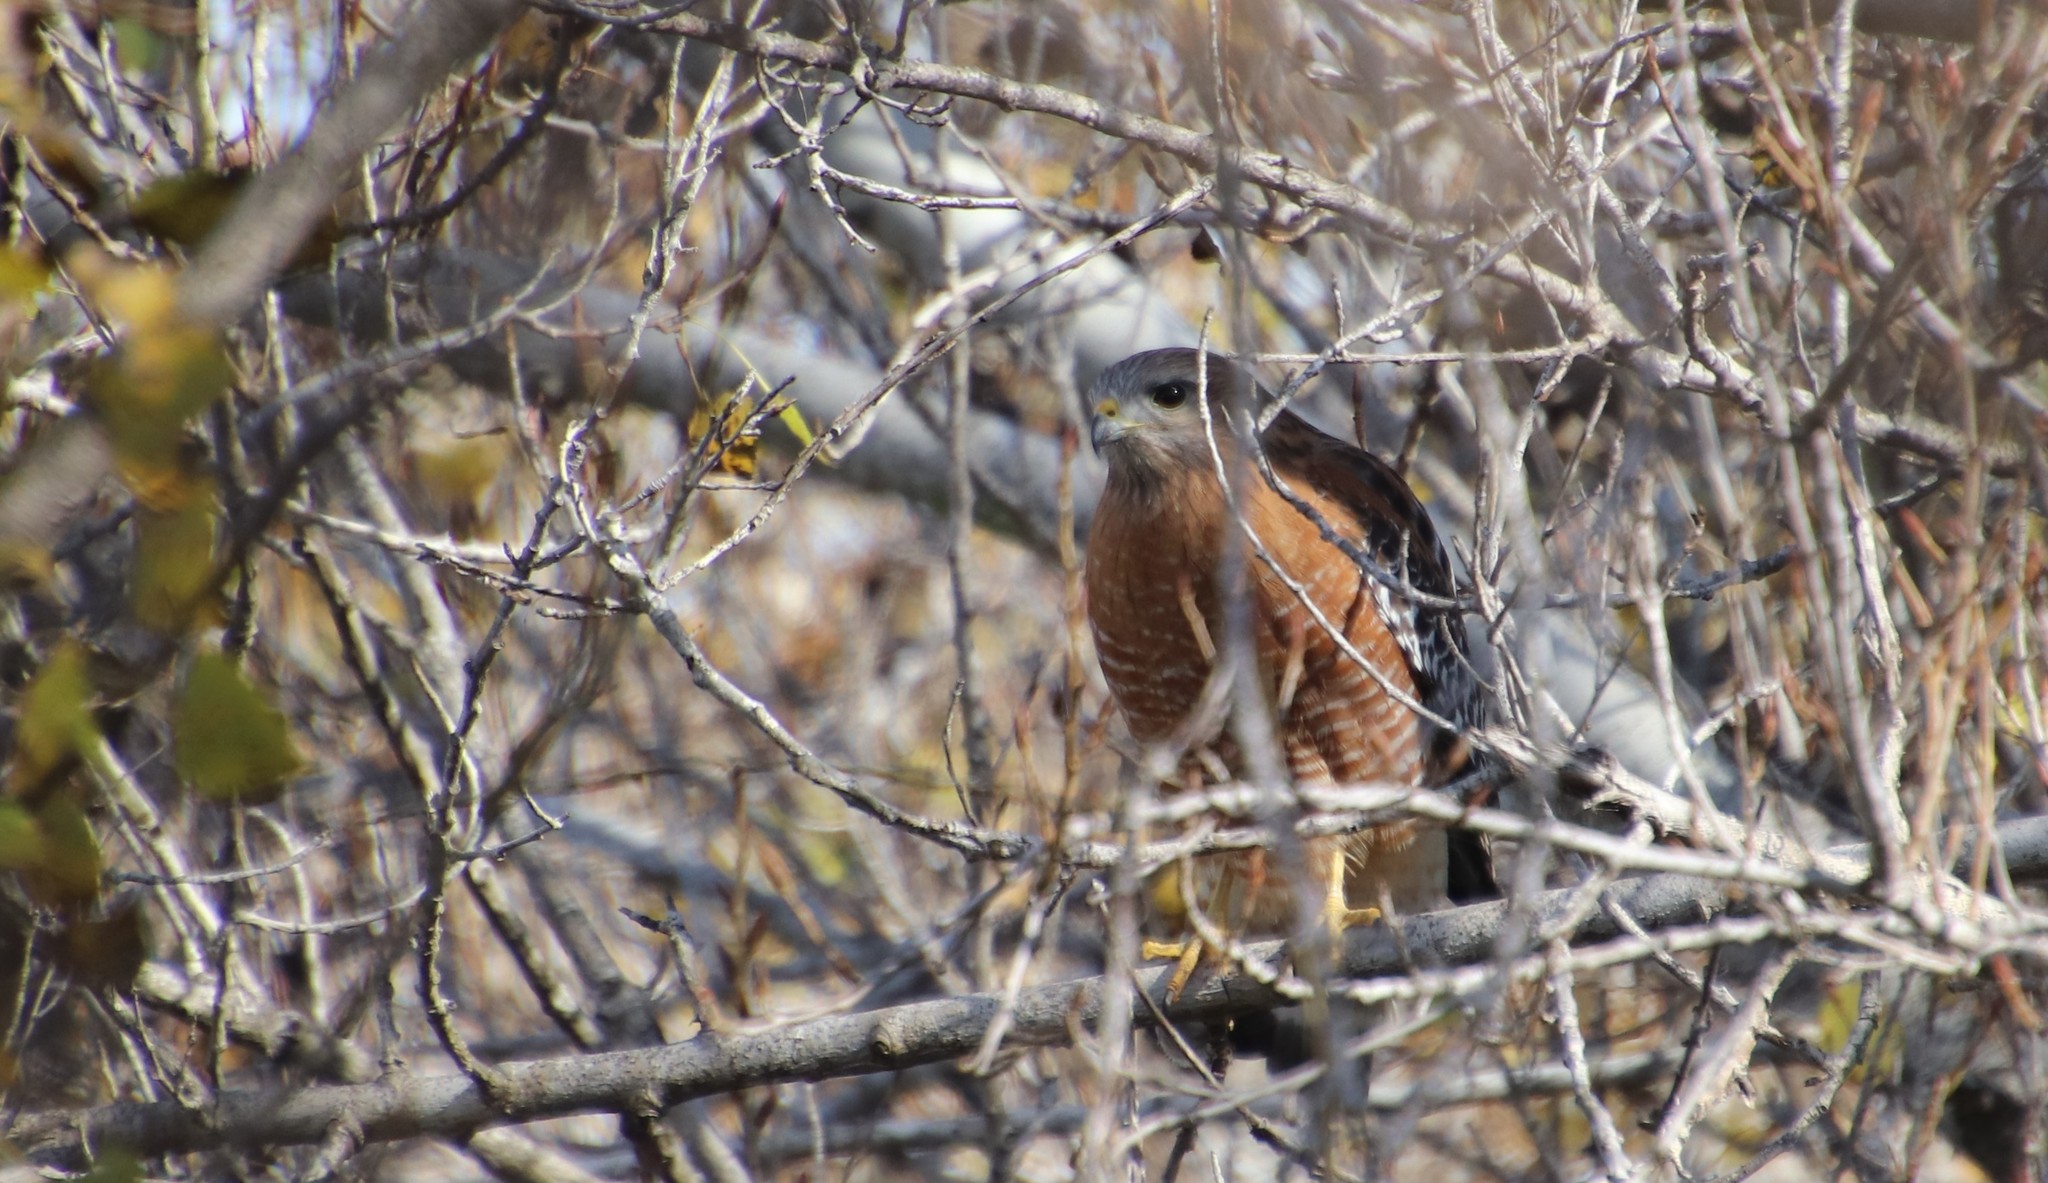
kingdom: Animalia
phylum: Chordata
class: Aves
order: Accipitriformes
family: Accipitridae
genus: Buteo
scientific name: Buteo lineatus
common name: Red-shouldered hawk
